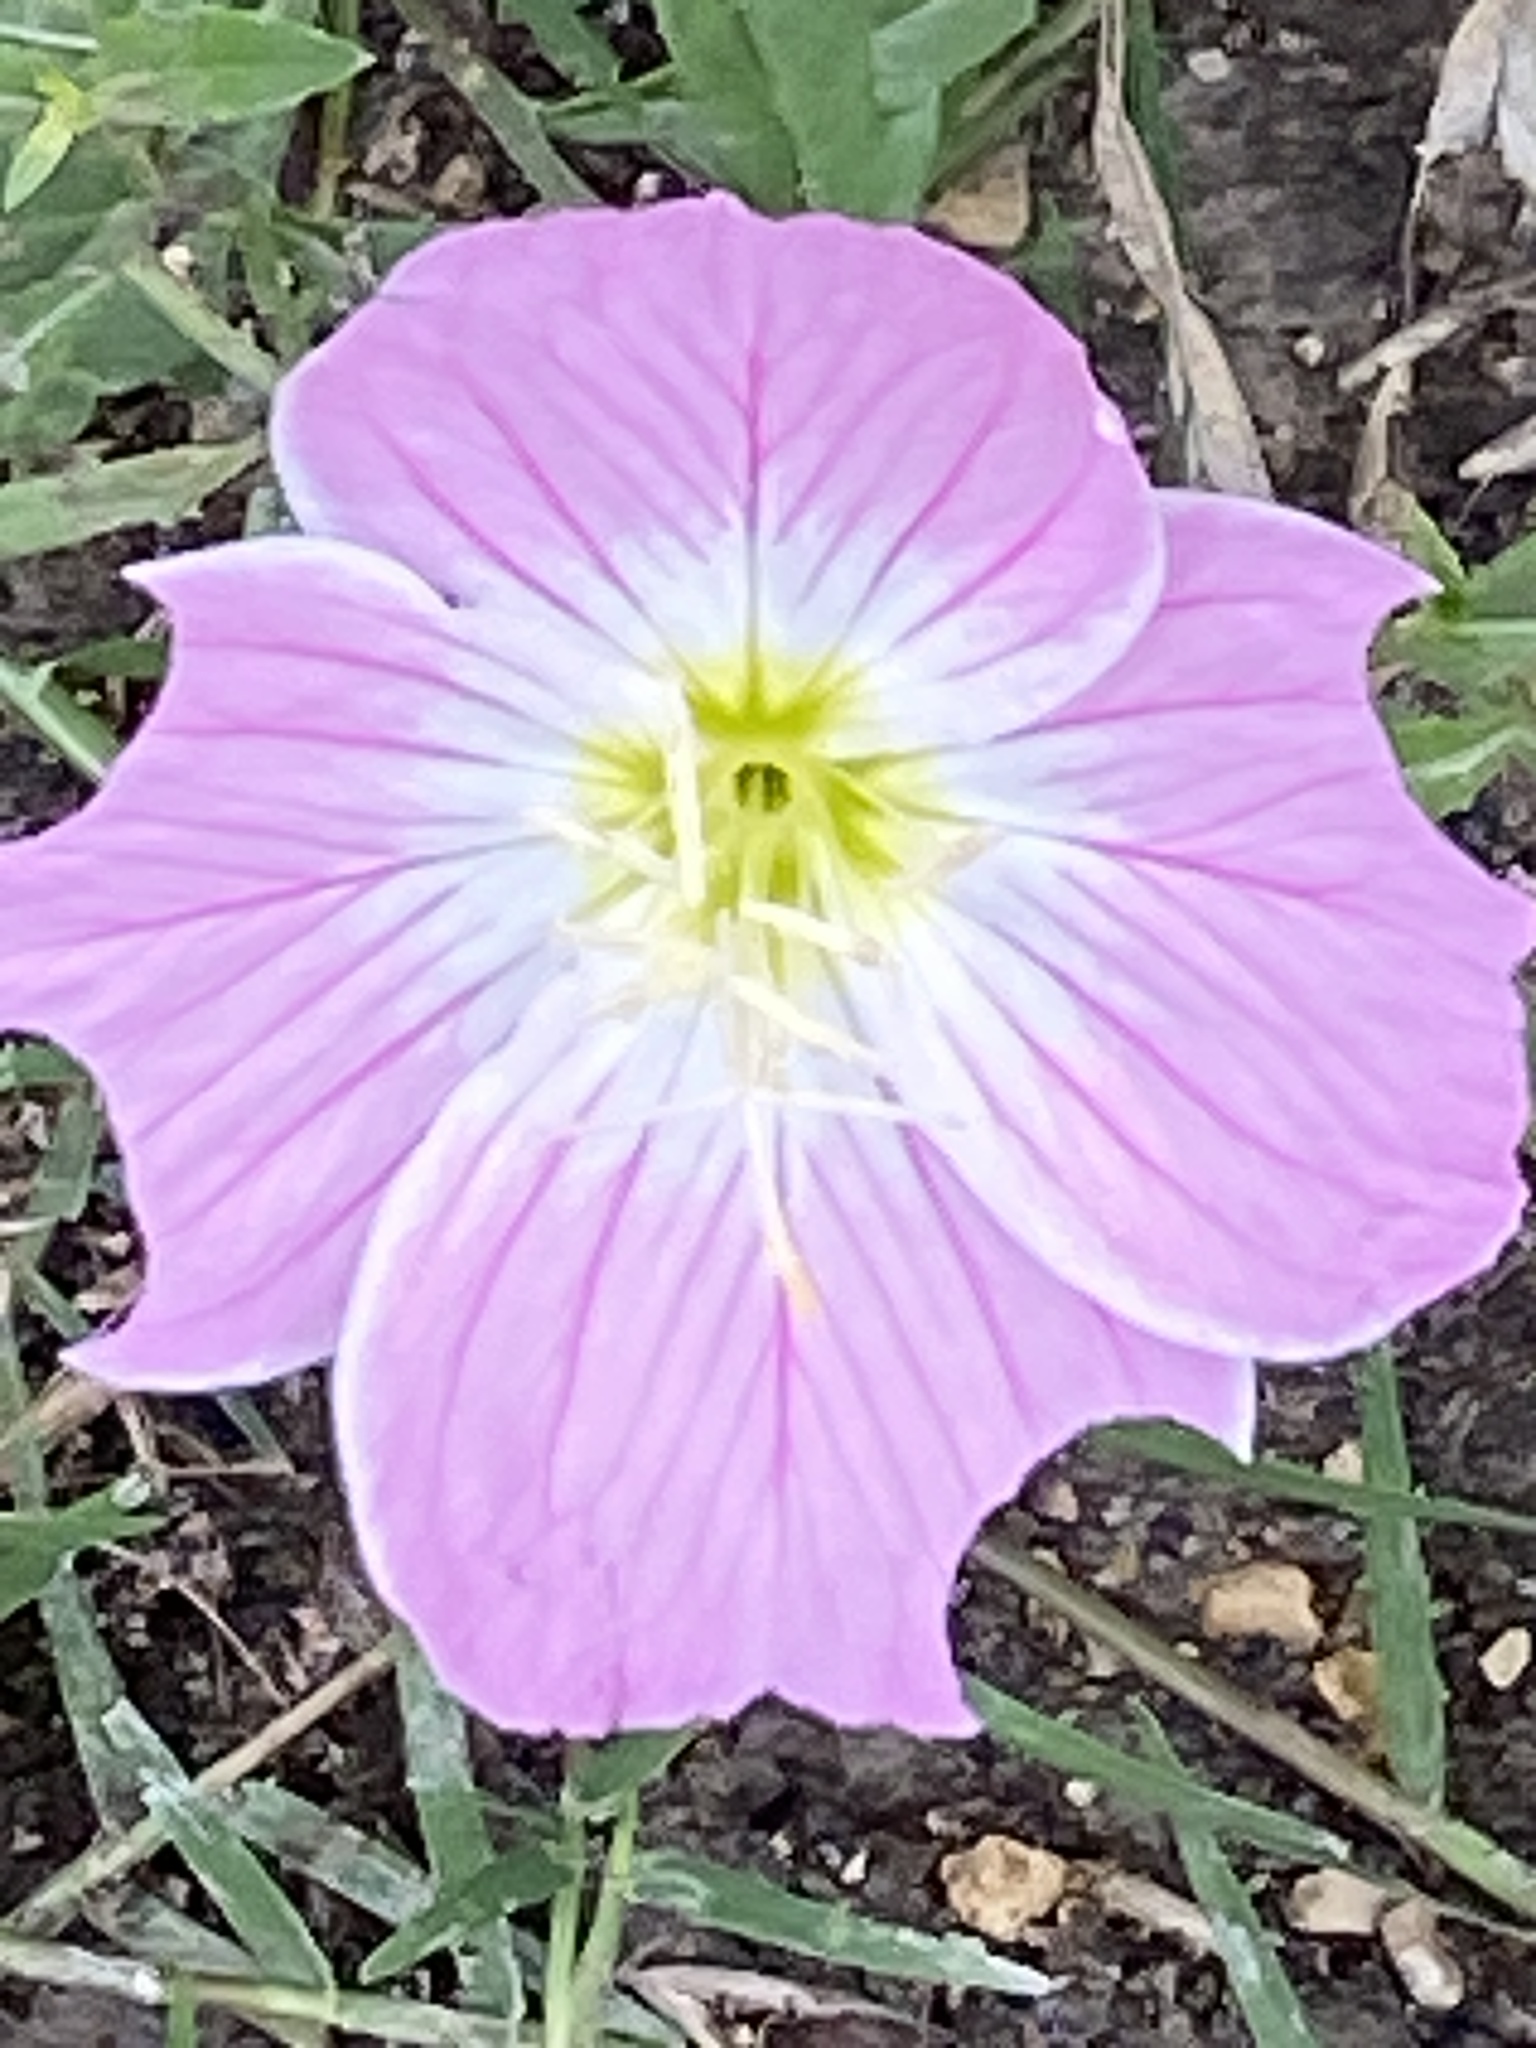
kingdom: Plantae
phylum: Tracheophyta
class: Magnoliopsida
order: Myrtales
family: Onagraceae
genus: Oenothera
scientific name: Oenothera speciosa
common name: White evening-primrose
